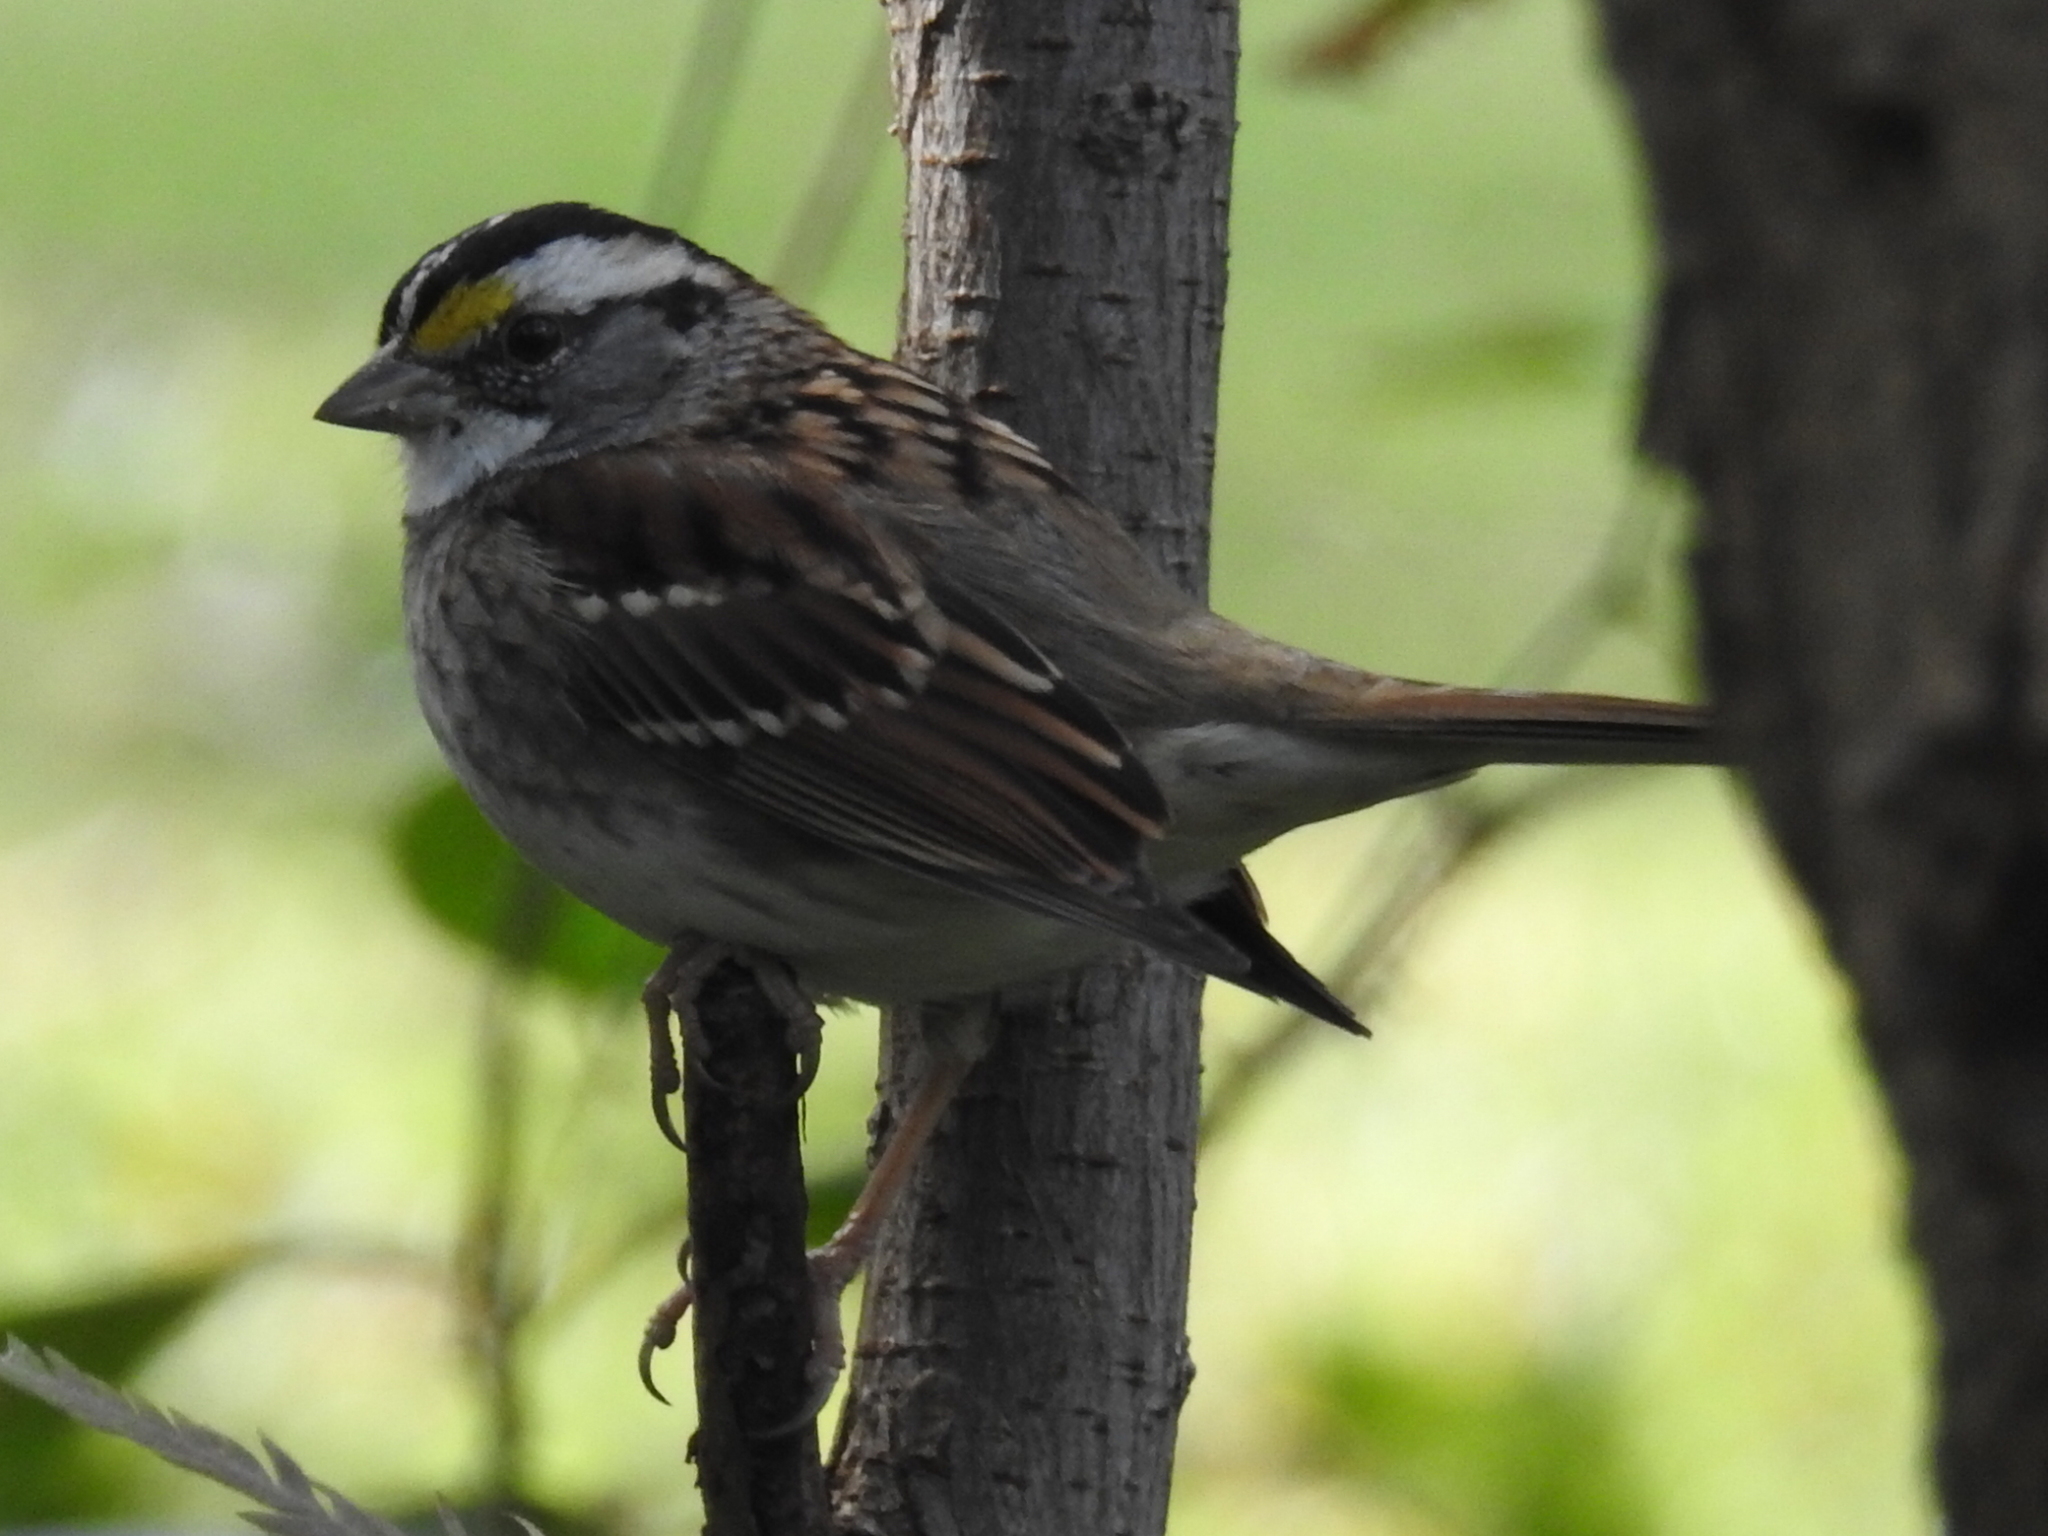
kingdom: Animalia
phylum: Chordata
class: Aves
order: Passeriformes
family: Passerellidae
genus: Zonotrichia
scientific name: Zonotrichia albicollis
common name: White-throated sparrow
